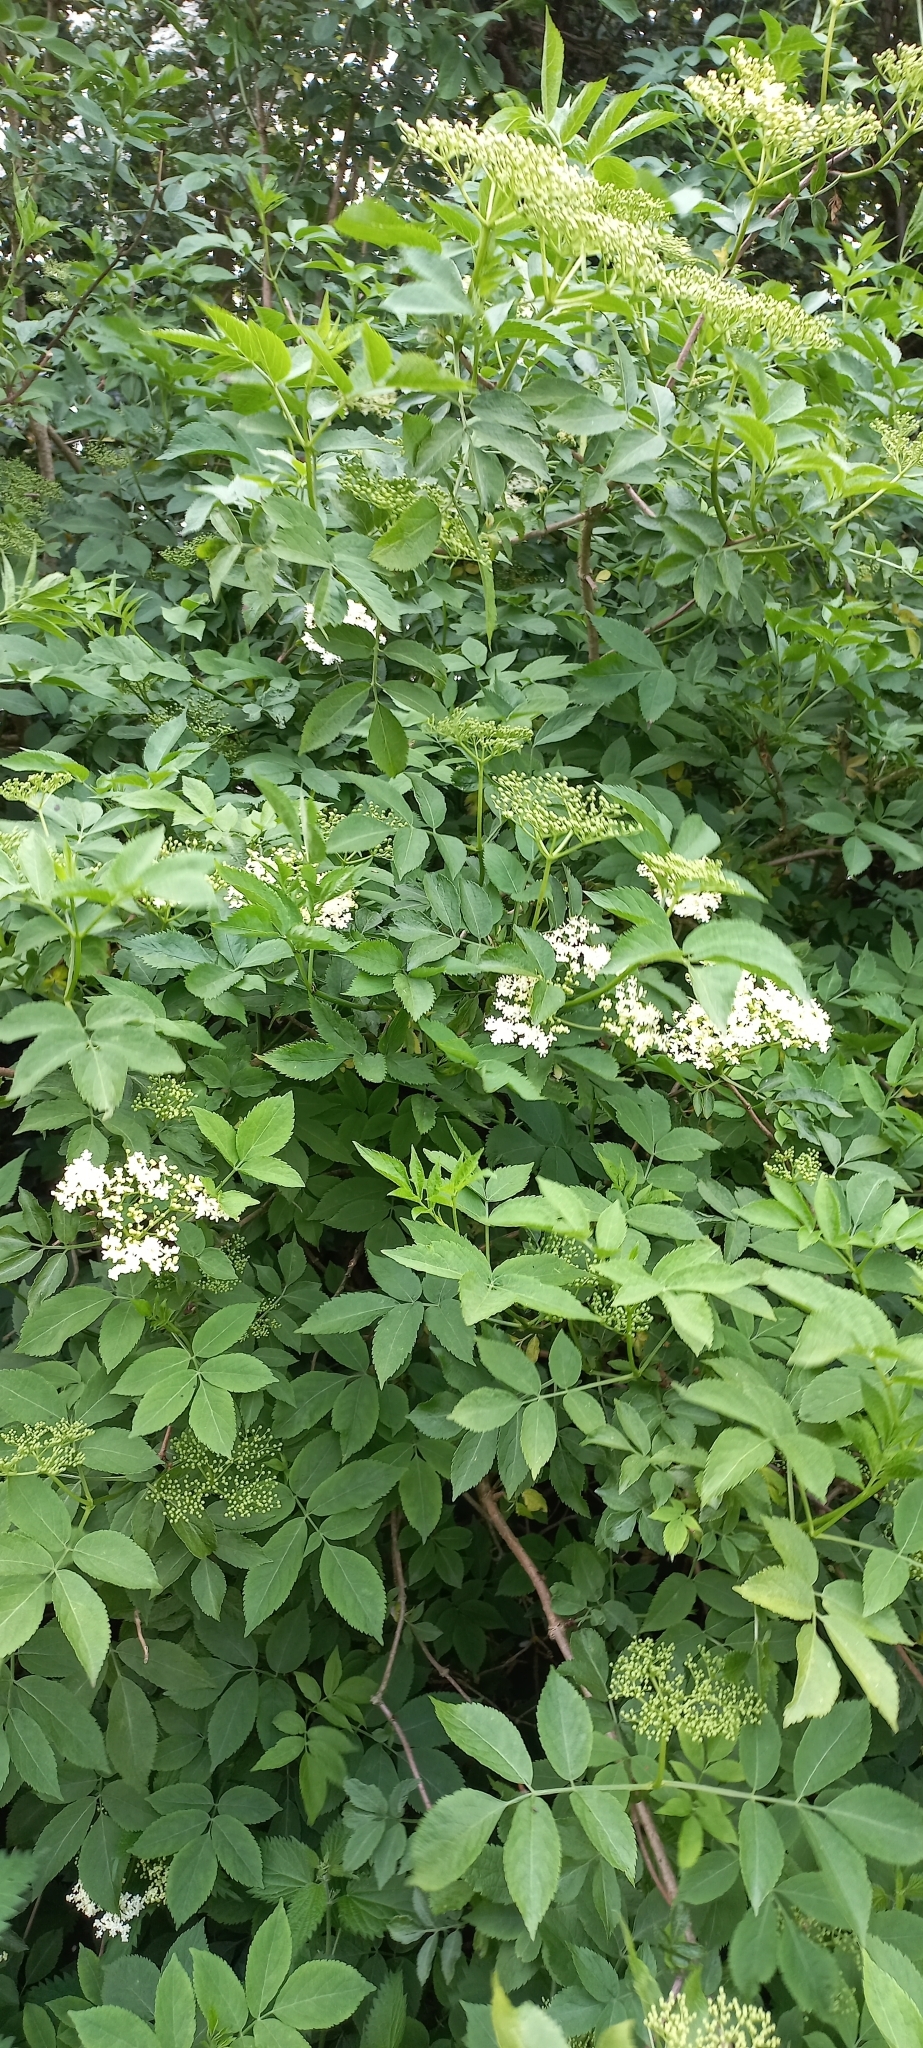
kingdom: Plantae
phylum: Tracheophyta
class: Magnoliopsida
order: Dipsacales
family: Viburnaceae
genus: Sambucus
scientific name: Sambucus nigra
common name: Elder
